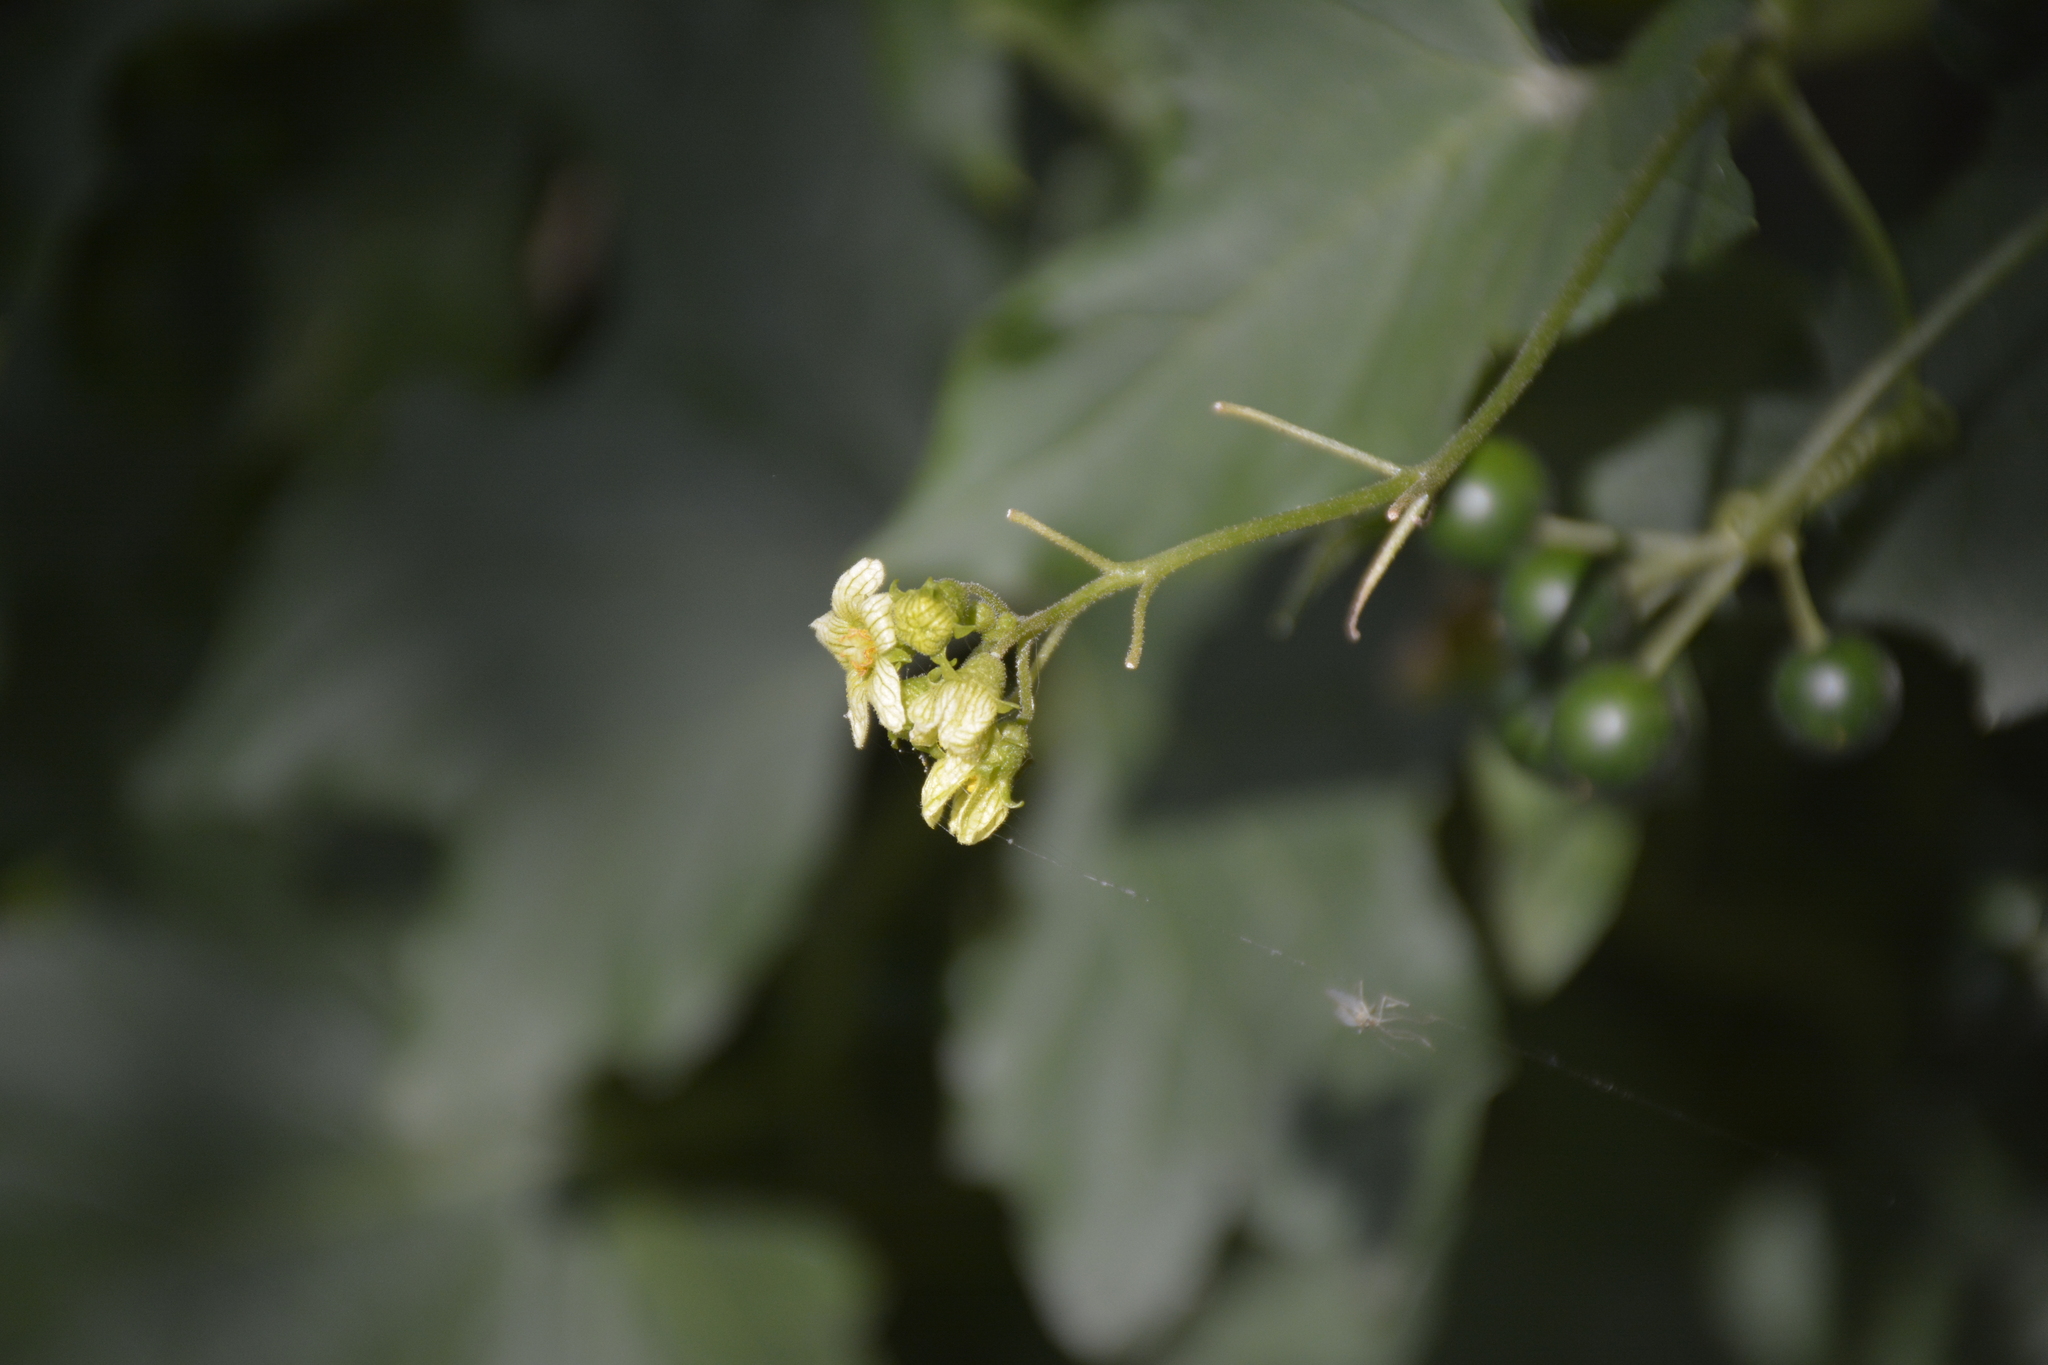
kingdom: Plantae
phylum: Tracheophyta
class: Magnoliopsida
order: Cucurbitales
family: Cucurbitaceae
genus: Bryonia
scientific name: Bryonia alba
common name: White bryony
